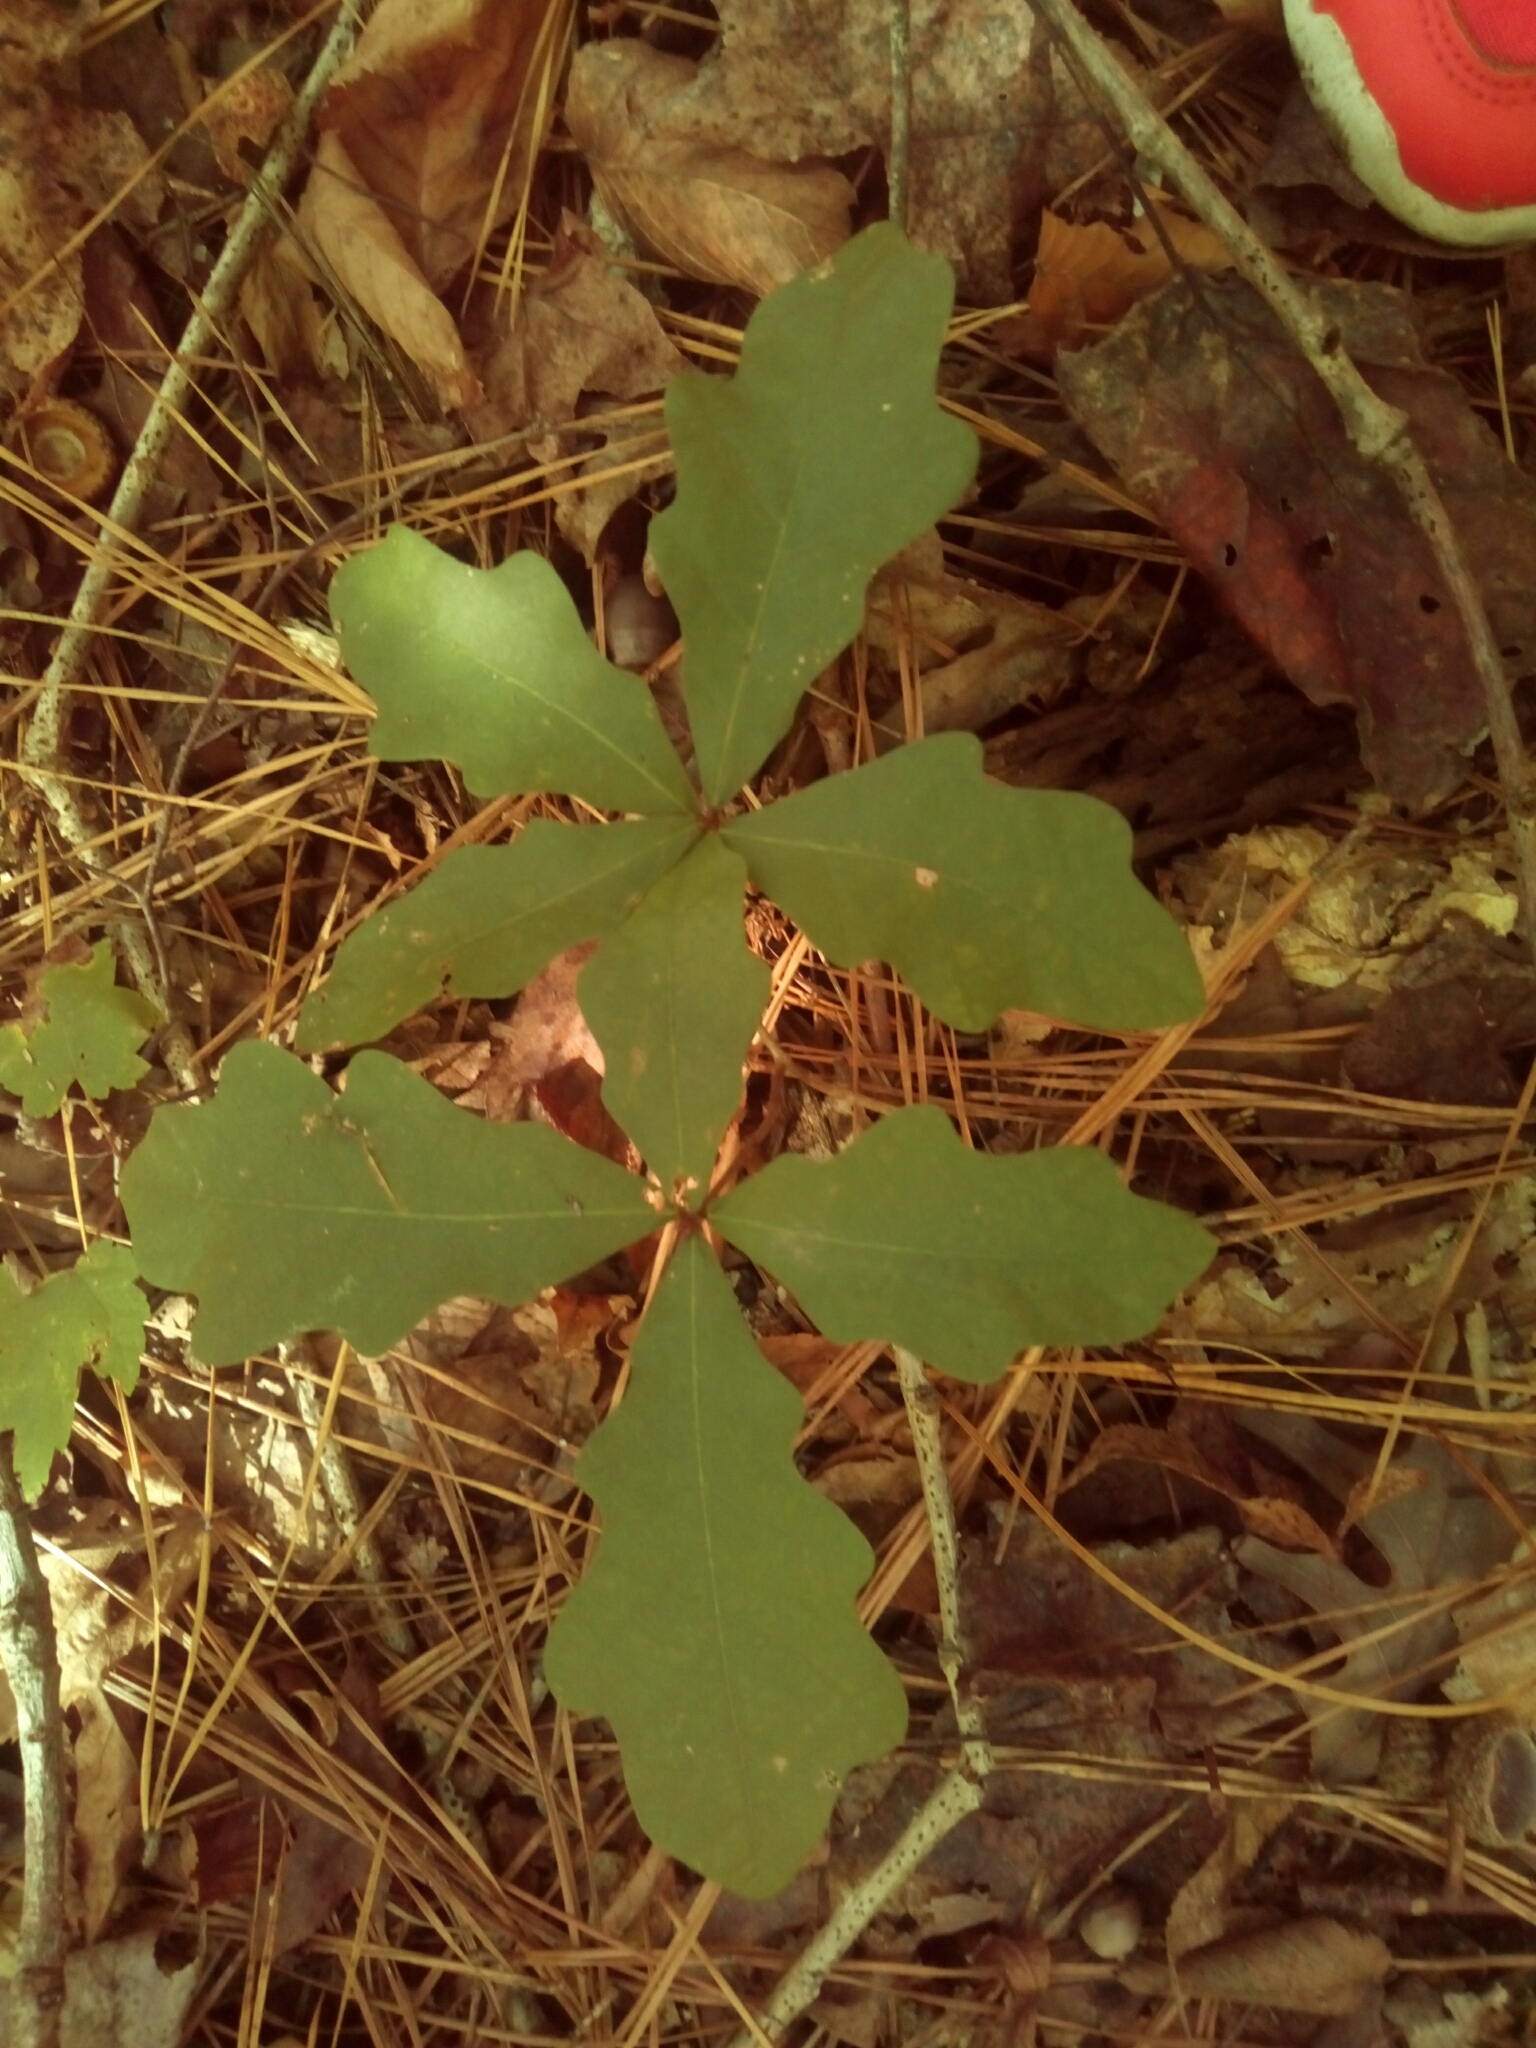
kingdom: Plantae
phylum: Tracheophyta
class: Magnoliopsida
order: Fagales
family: Fagaceae
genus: Quercus
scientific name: Quercus alba
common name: White oak
